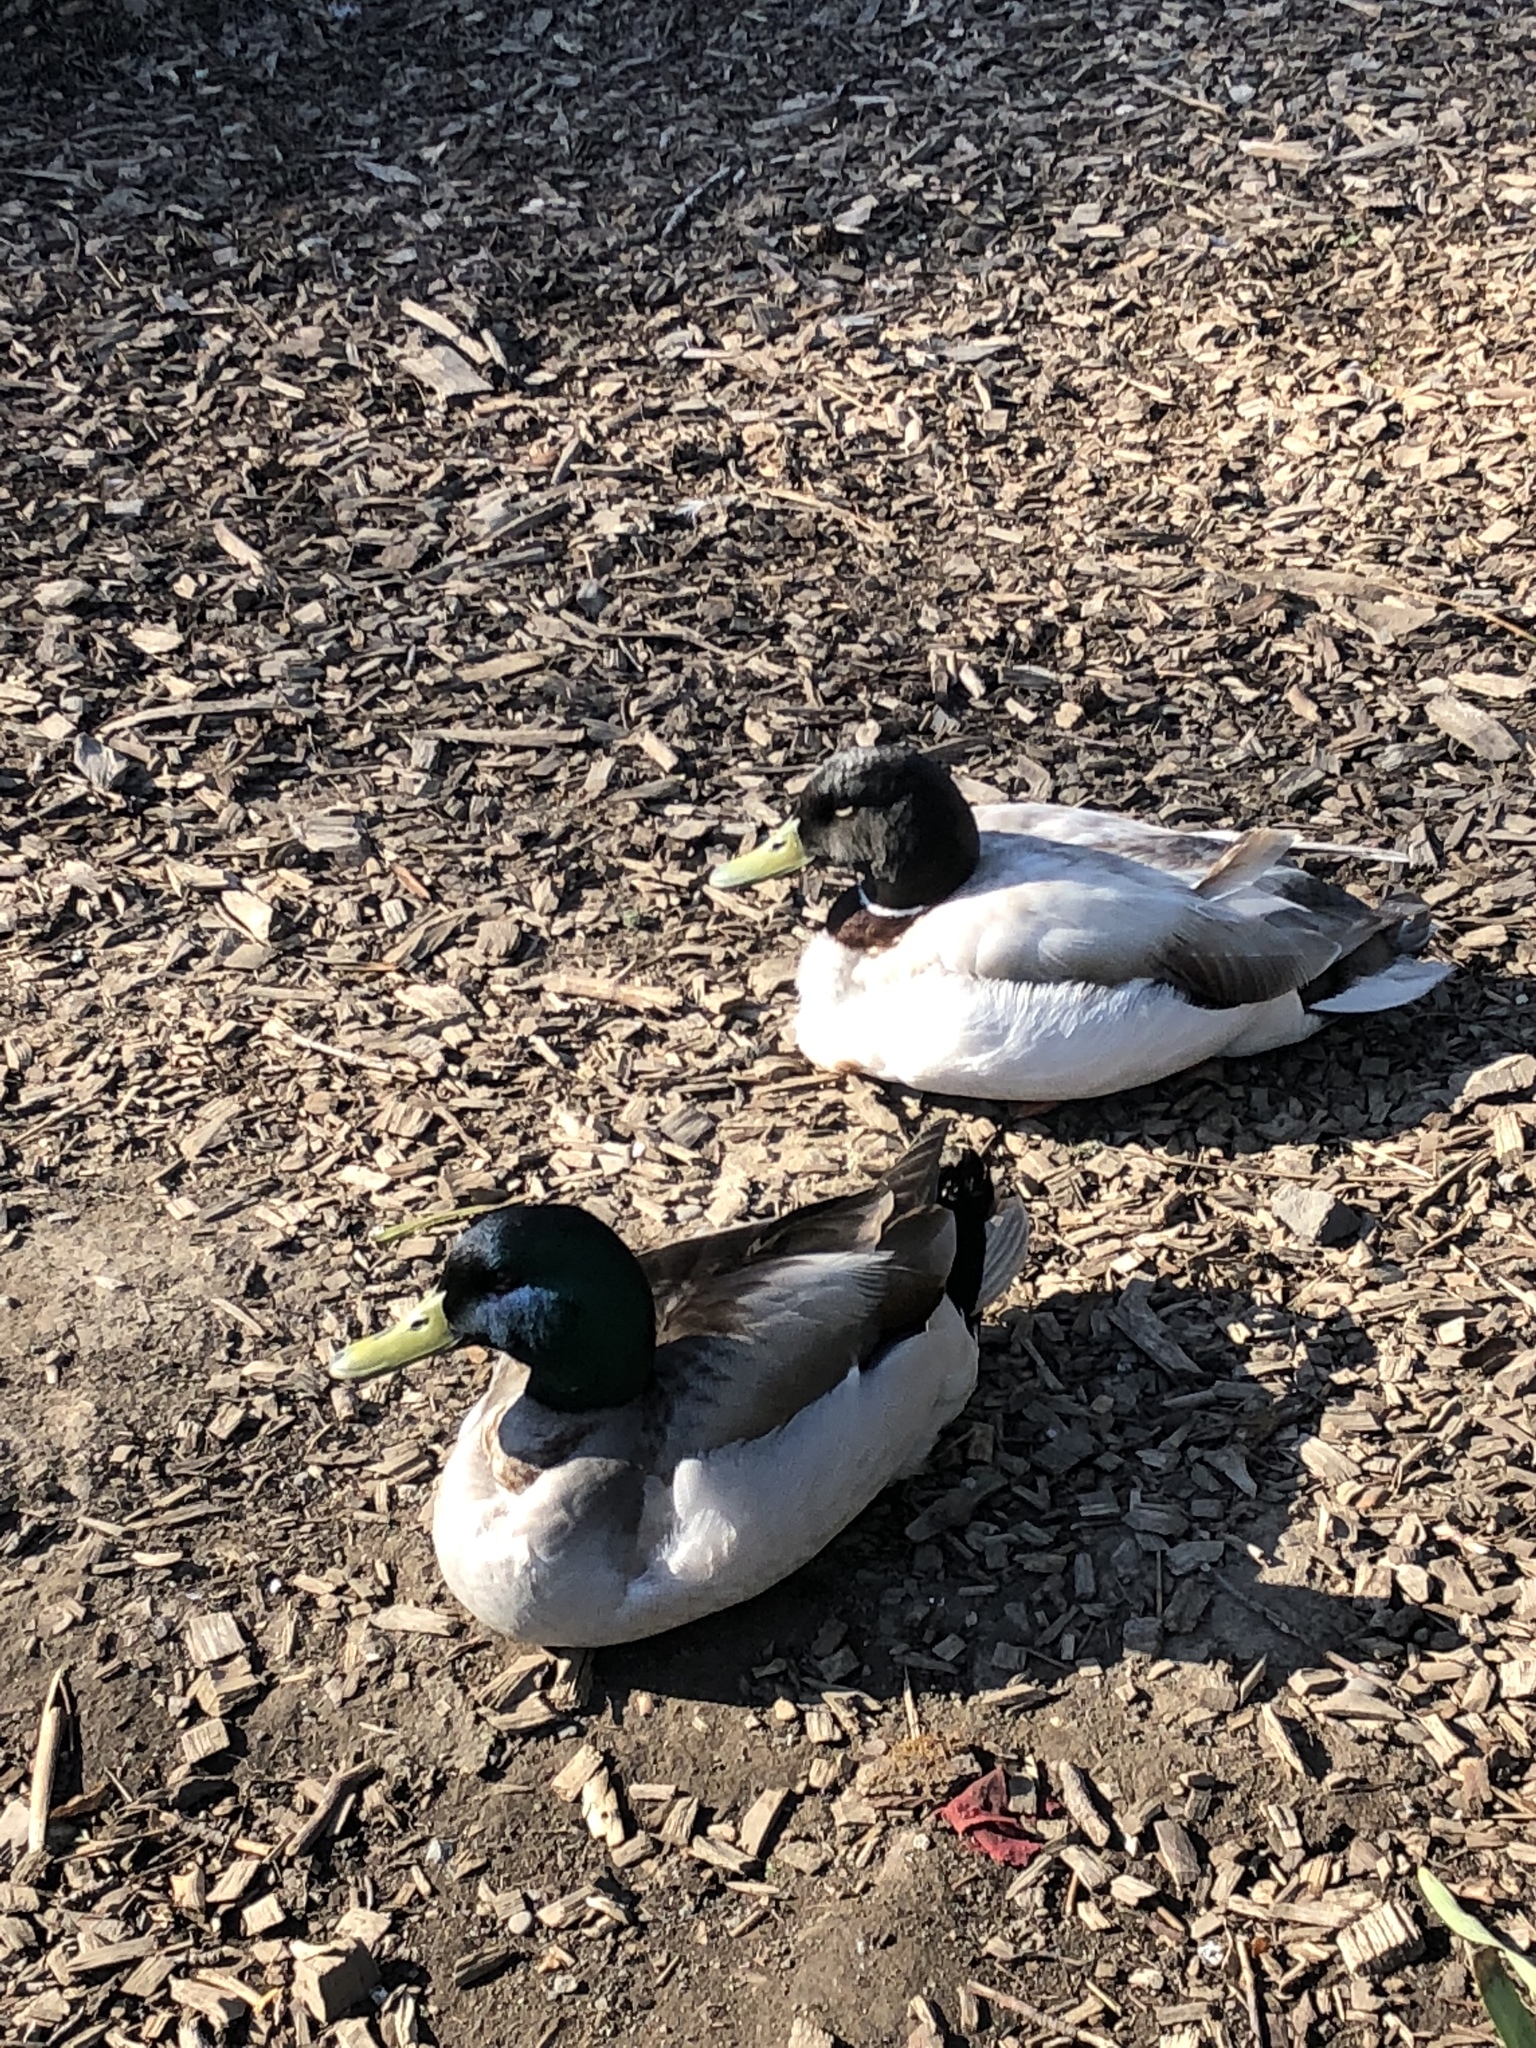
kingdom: Animalia
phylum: Chordata
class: Aves
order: Anseriformes
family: Anatidae
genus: Anas
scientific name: Anas platyrhynchos
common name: Mallard
